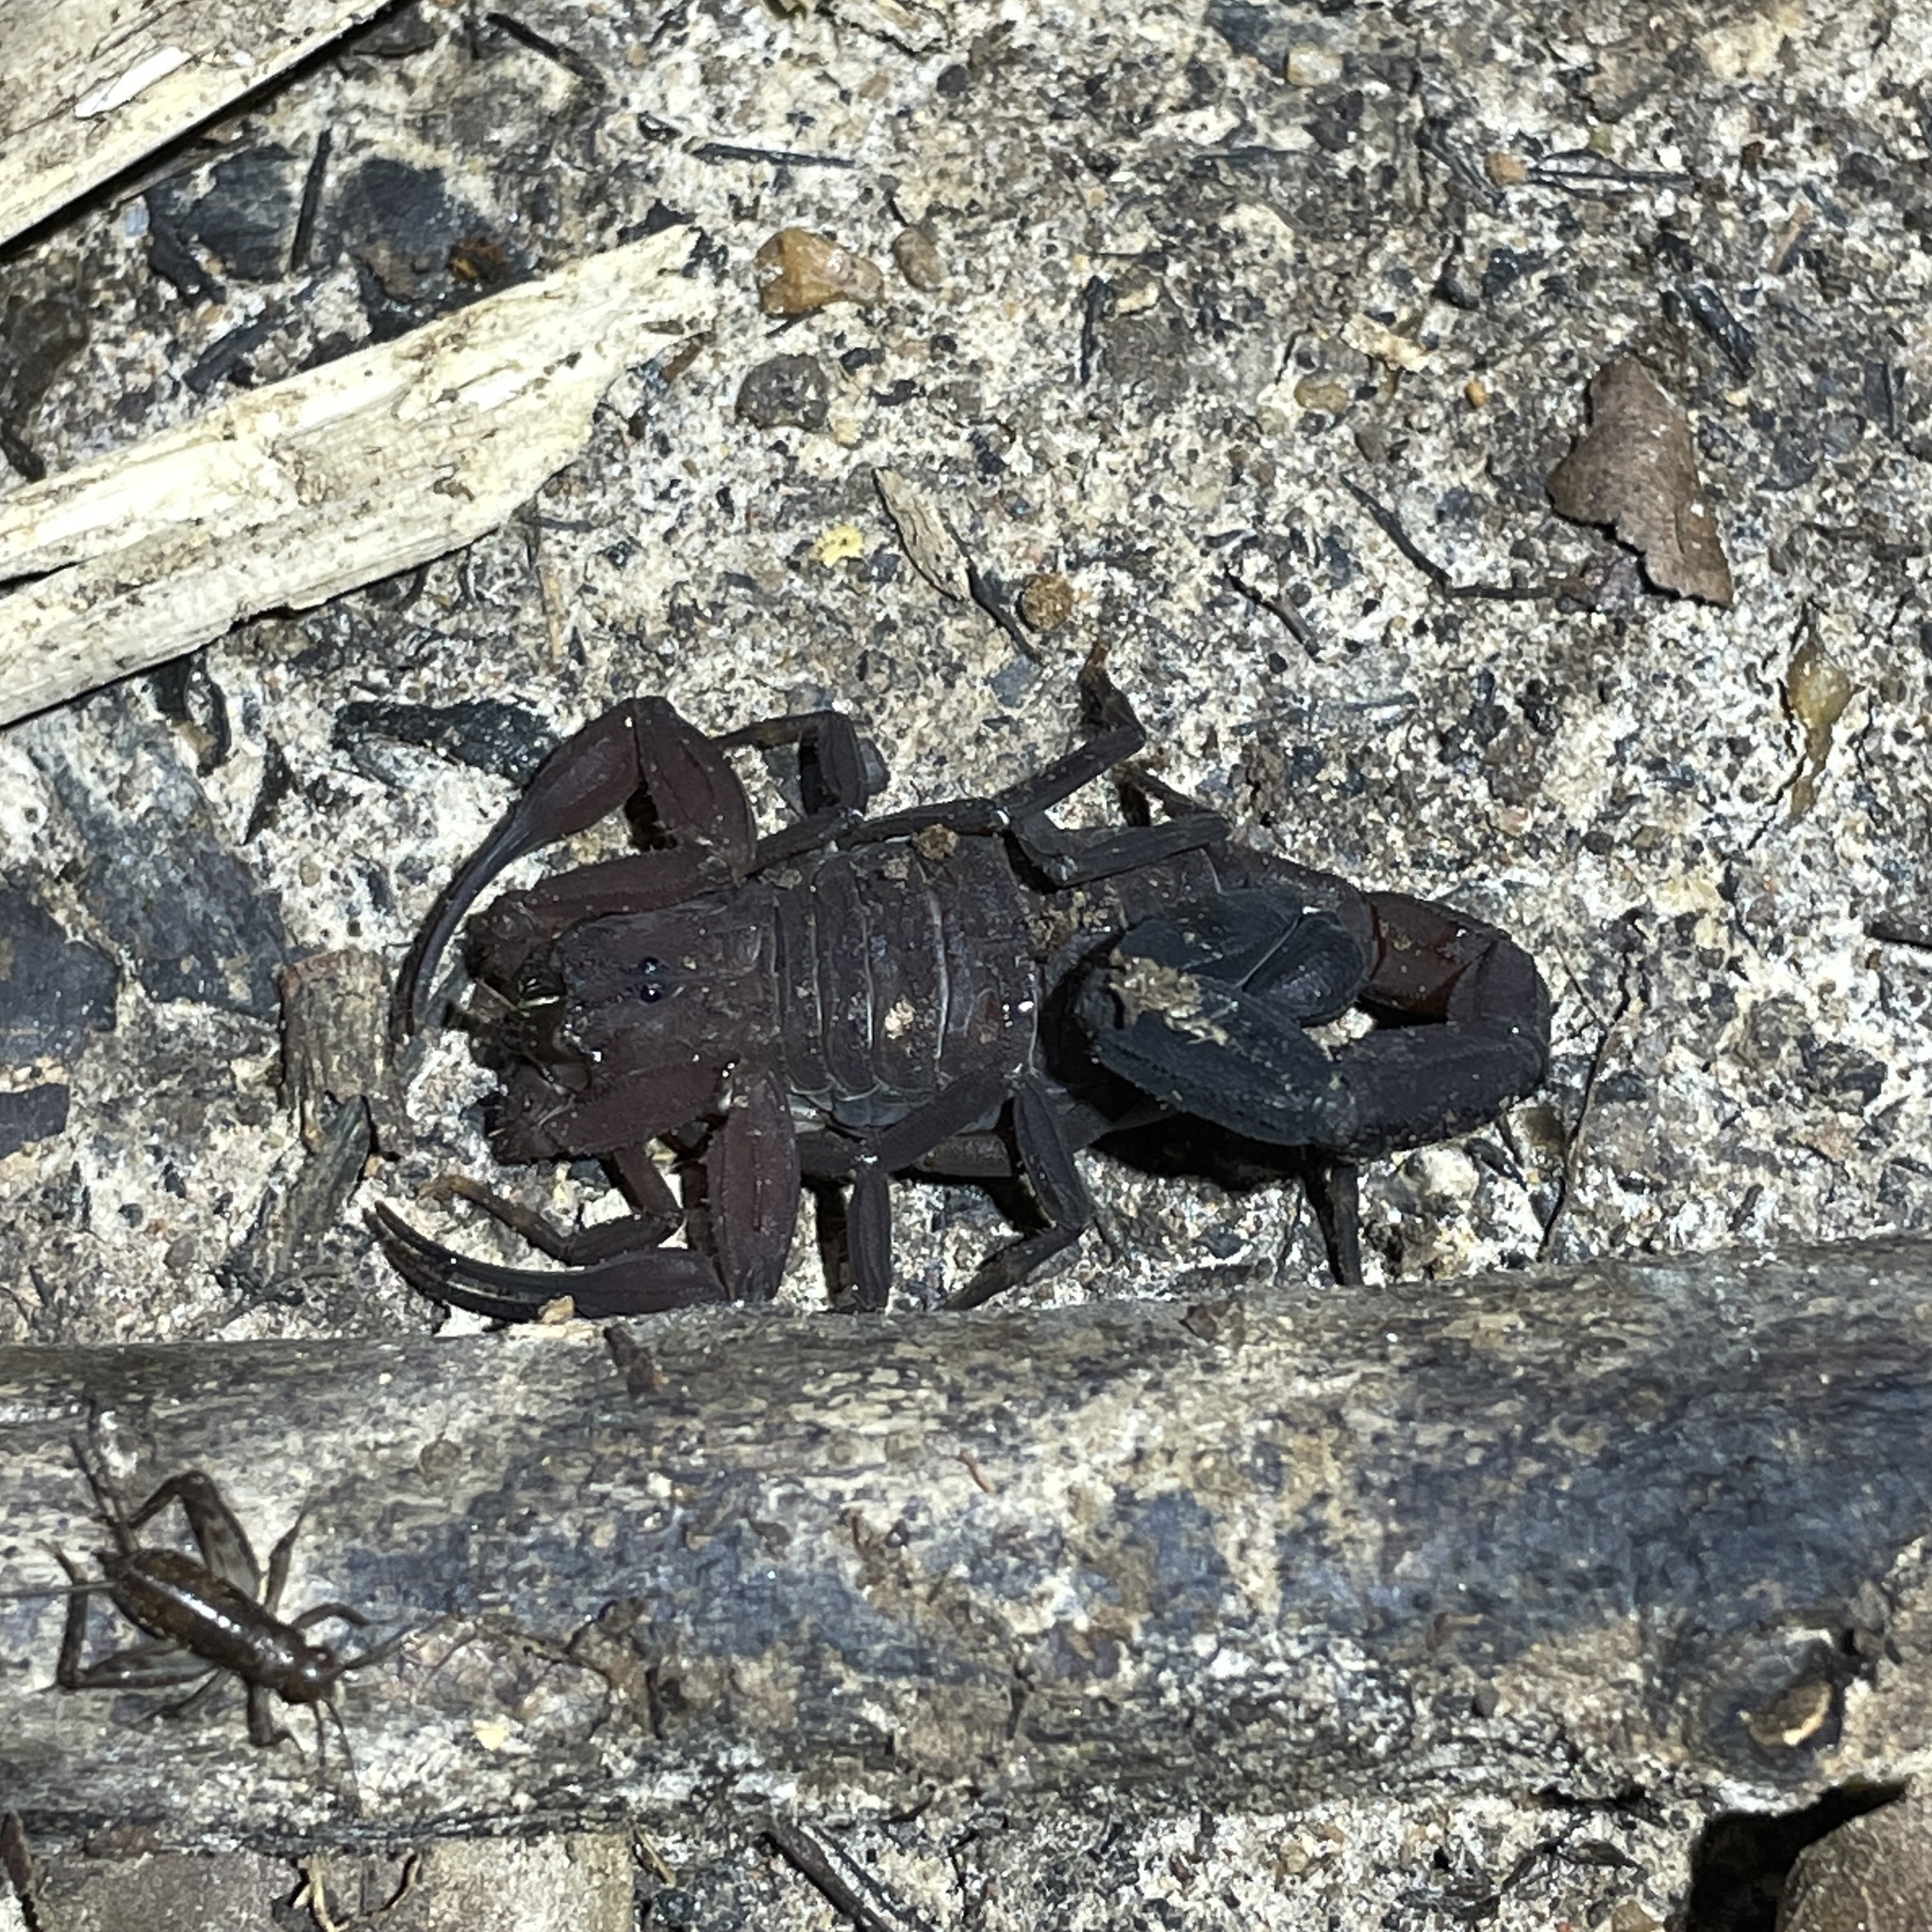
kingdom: Animalia
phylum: Arthropoda
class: Arachnida
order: Scorpiones
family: Buthidae
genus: Tityus
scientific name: Tityus trinitatis
